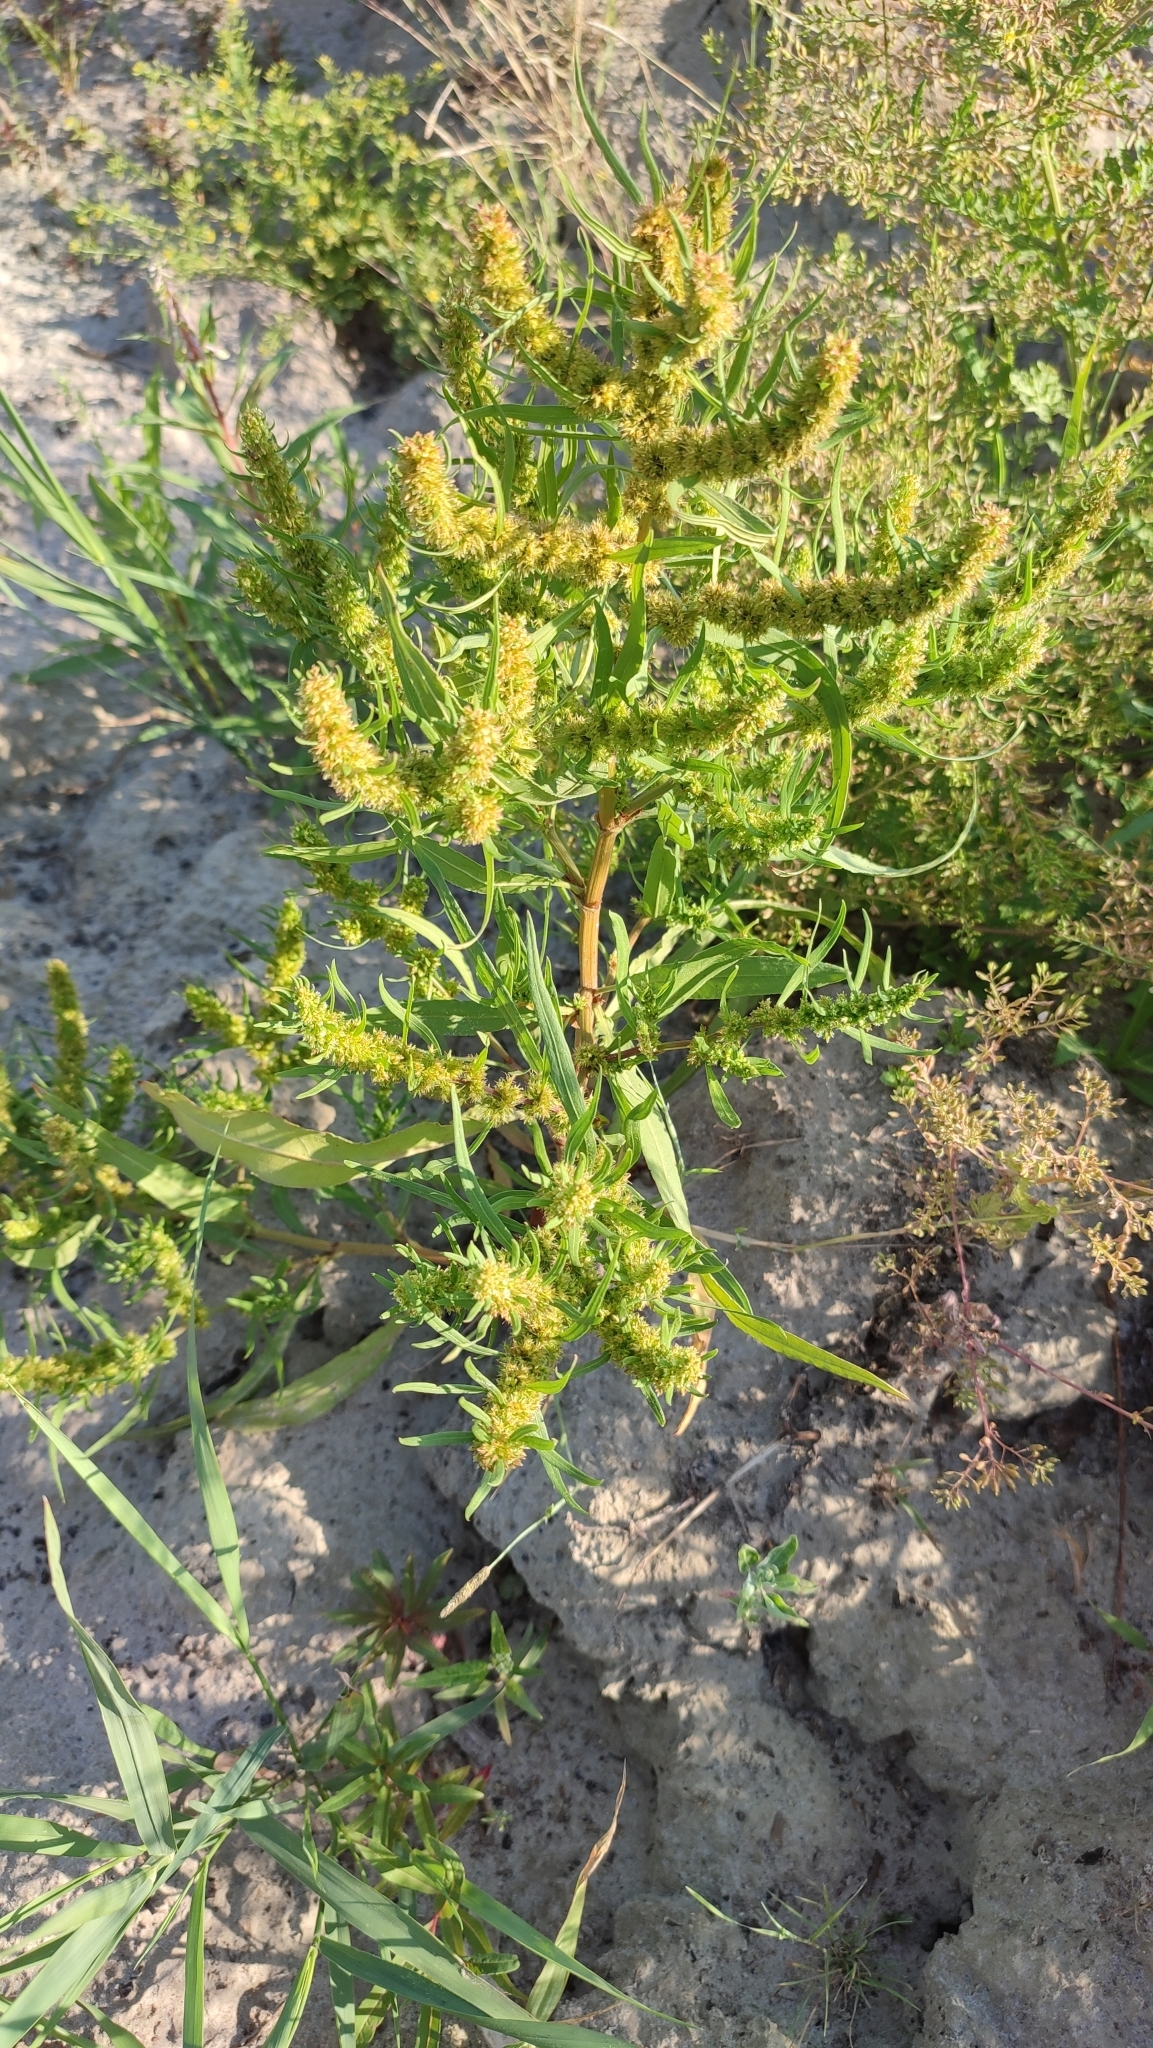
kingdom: Plantae
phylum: Tracheophyta
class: Magnoliopsida
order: Caryophyllales
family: Polygonaceae
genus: Rumex
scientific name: Rumex maritimus
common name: Golden dock
